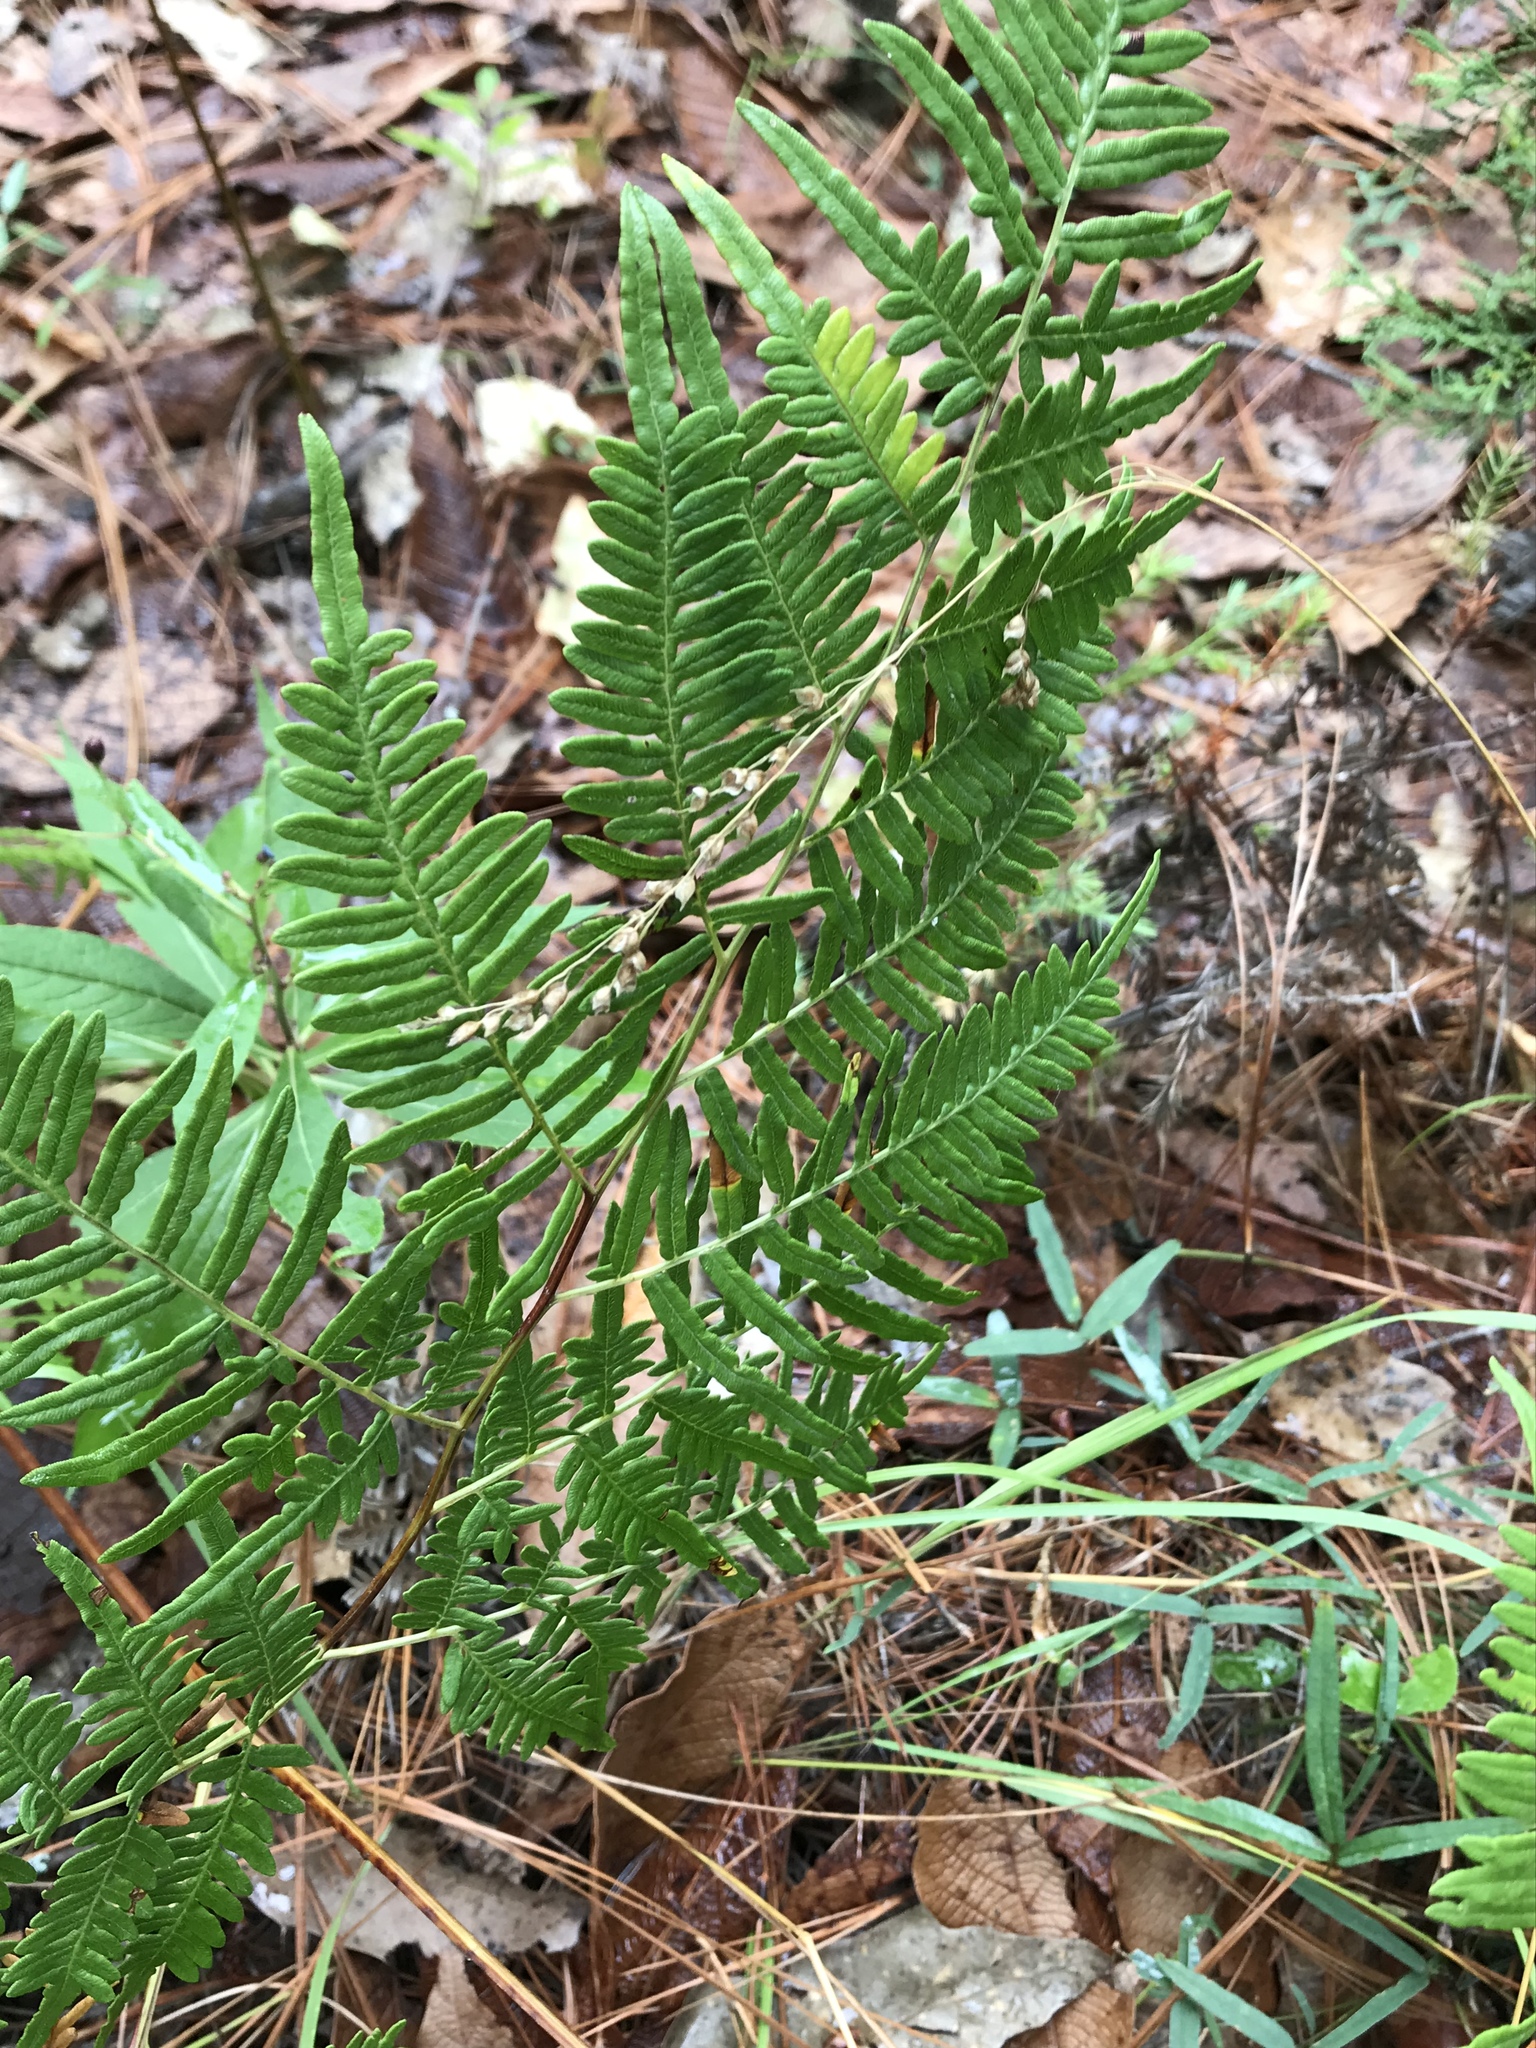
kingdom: Plantae
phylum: Tracheophyta
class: Polypodiopsida
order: Polypodiales
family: Dennstaedtiaceae
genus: Pteridium
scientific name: Pteridium caudatum
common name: Southern bracken fern
